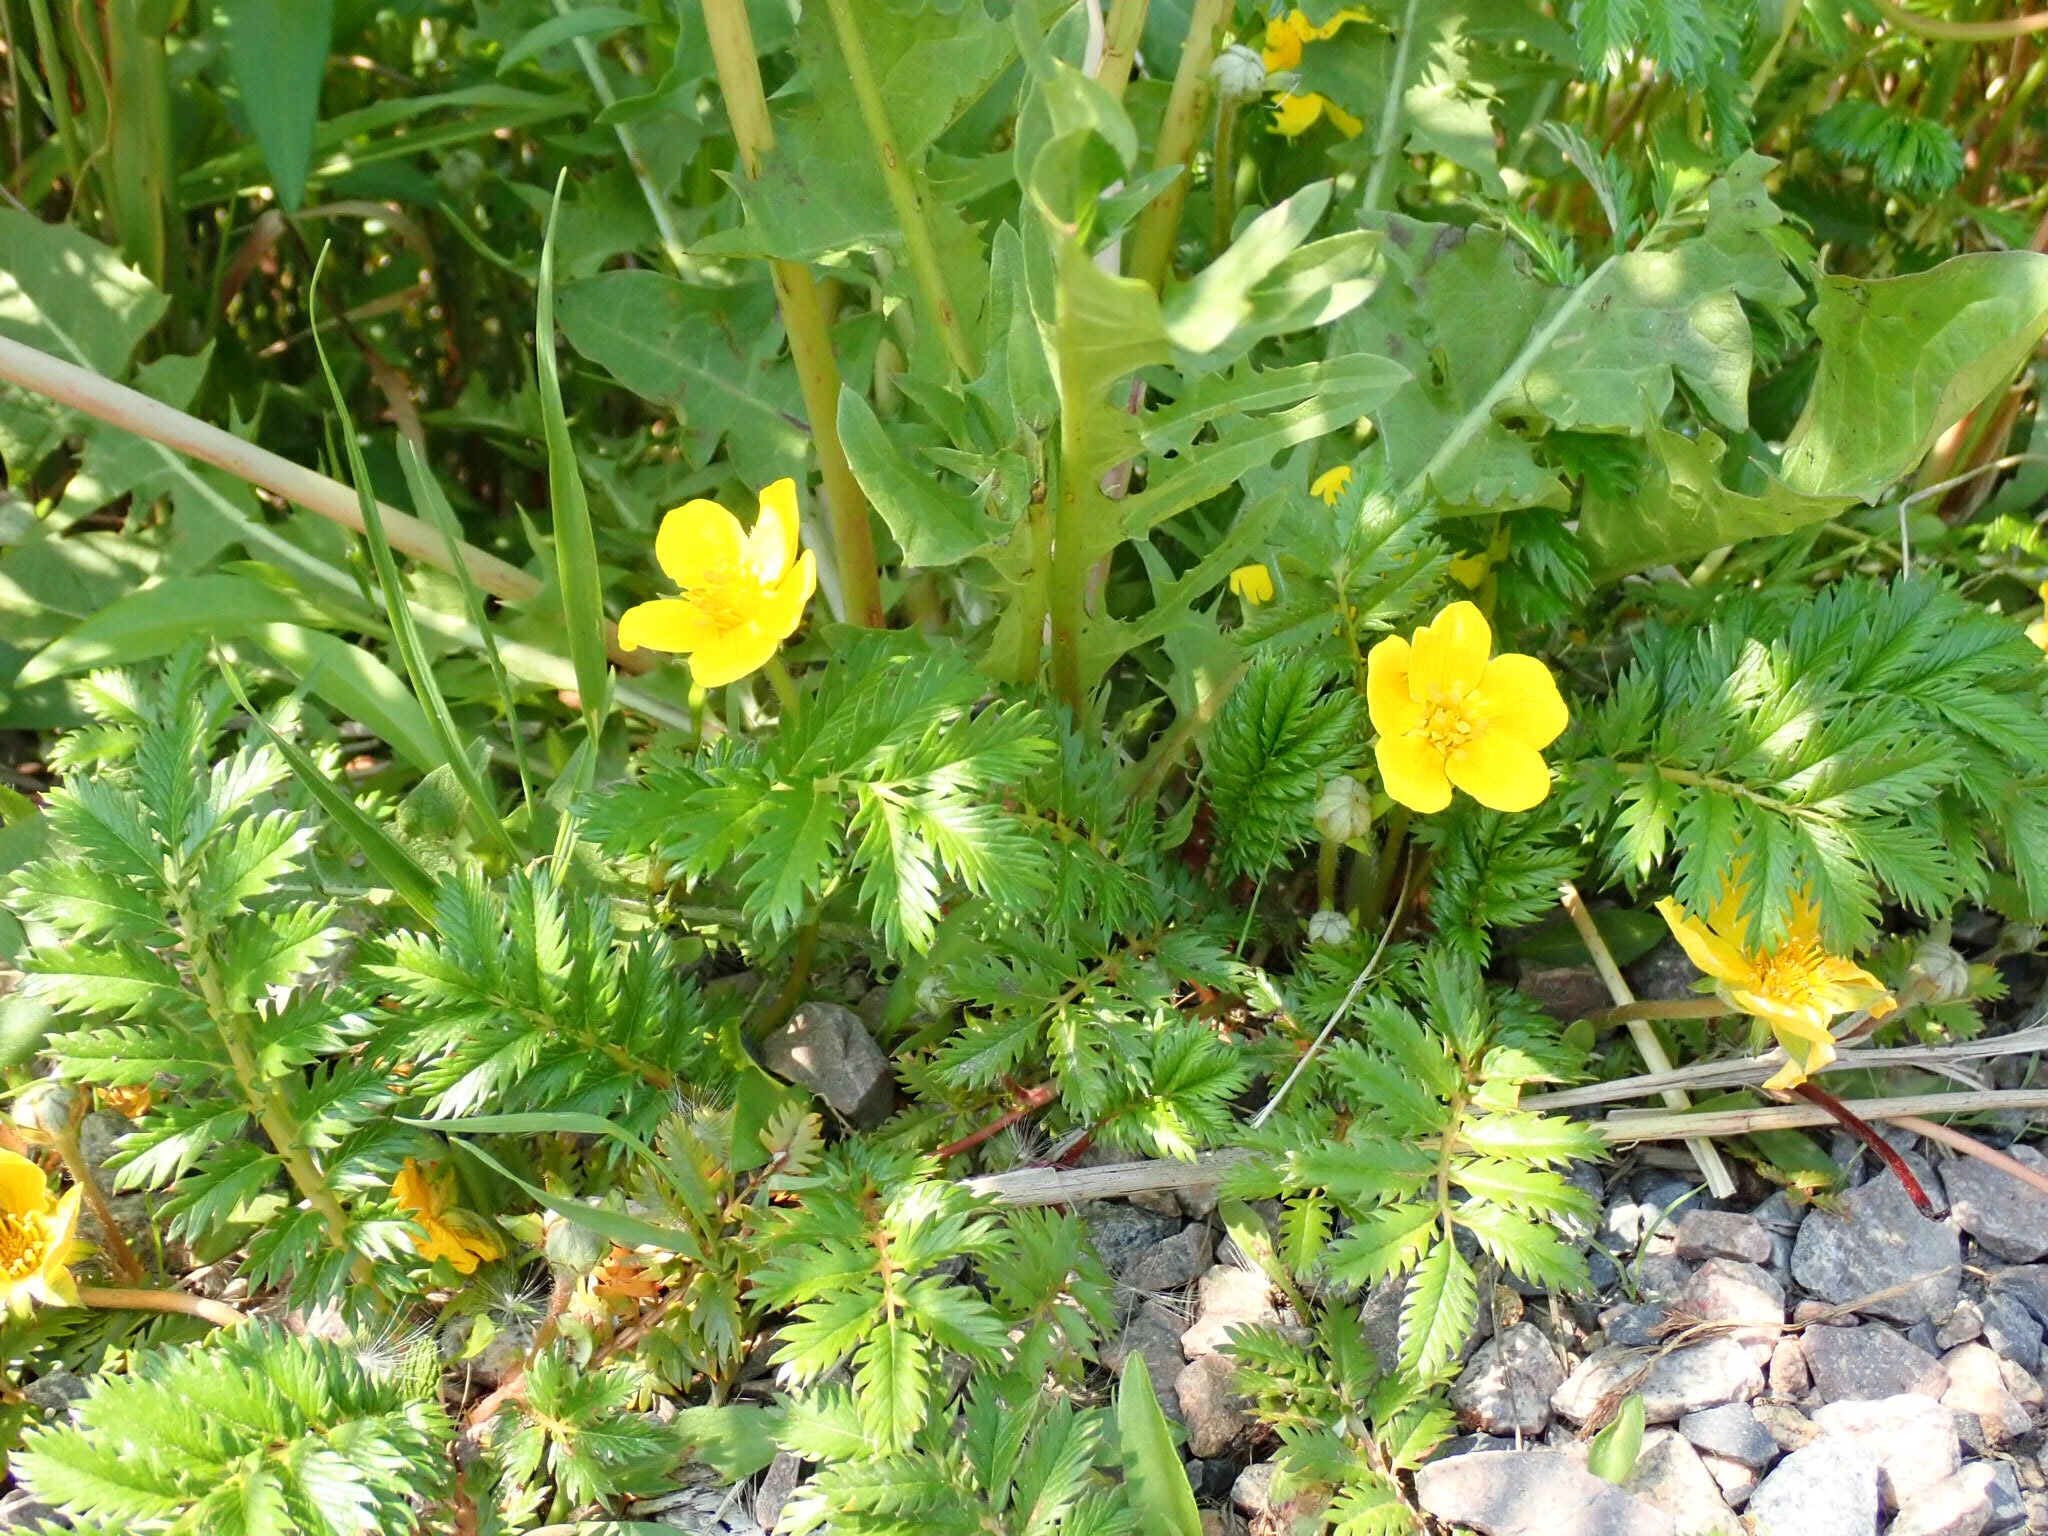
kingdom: Plantae
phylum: Tracheophyta
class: Magnoliopsida
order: Rosales
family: Rosaceae
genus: Argentina
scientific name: Argentina anserina
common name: Common silverweed
